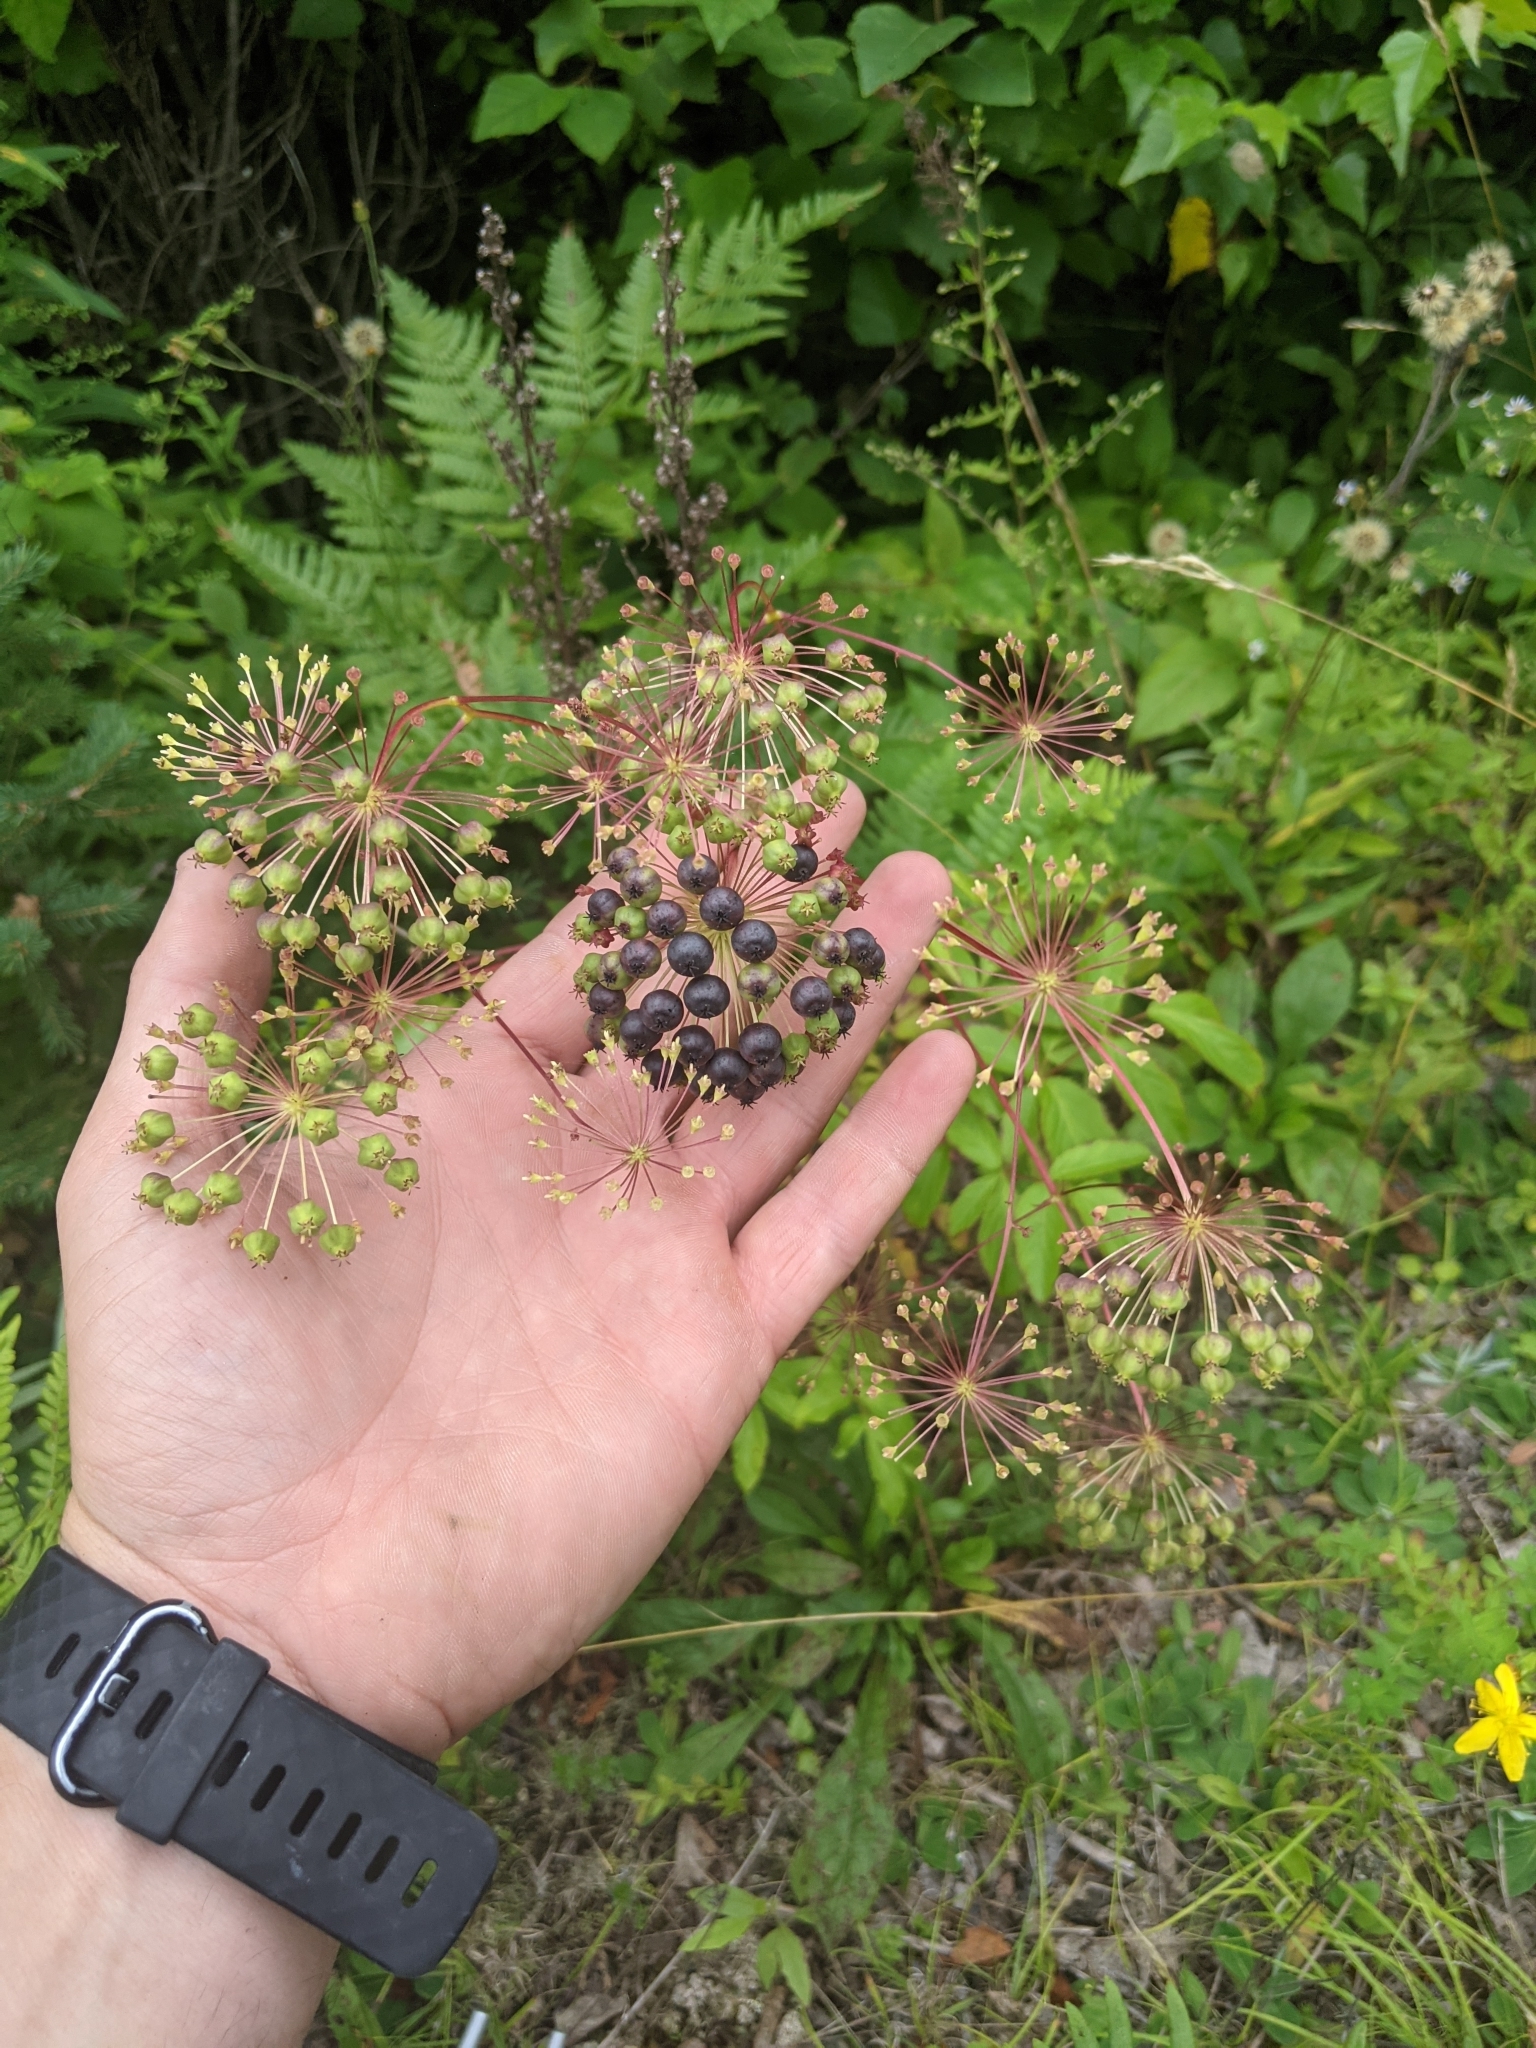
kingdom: Plantae
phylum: Tracheophyta
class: Magnoliopsida
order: Apiales
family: Araliaceae
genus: Aralia
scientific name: Aralia hispida
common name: Bristly sarsaparilla
